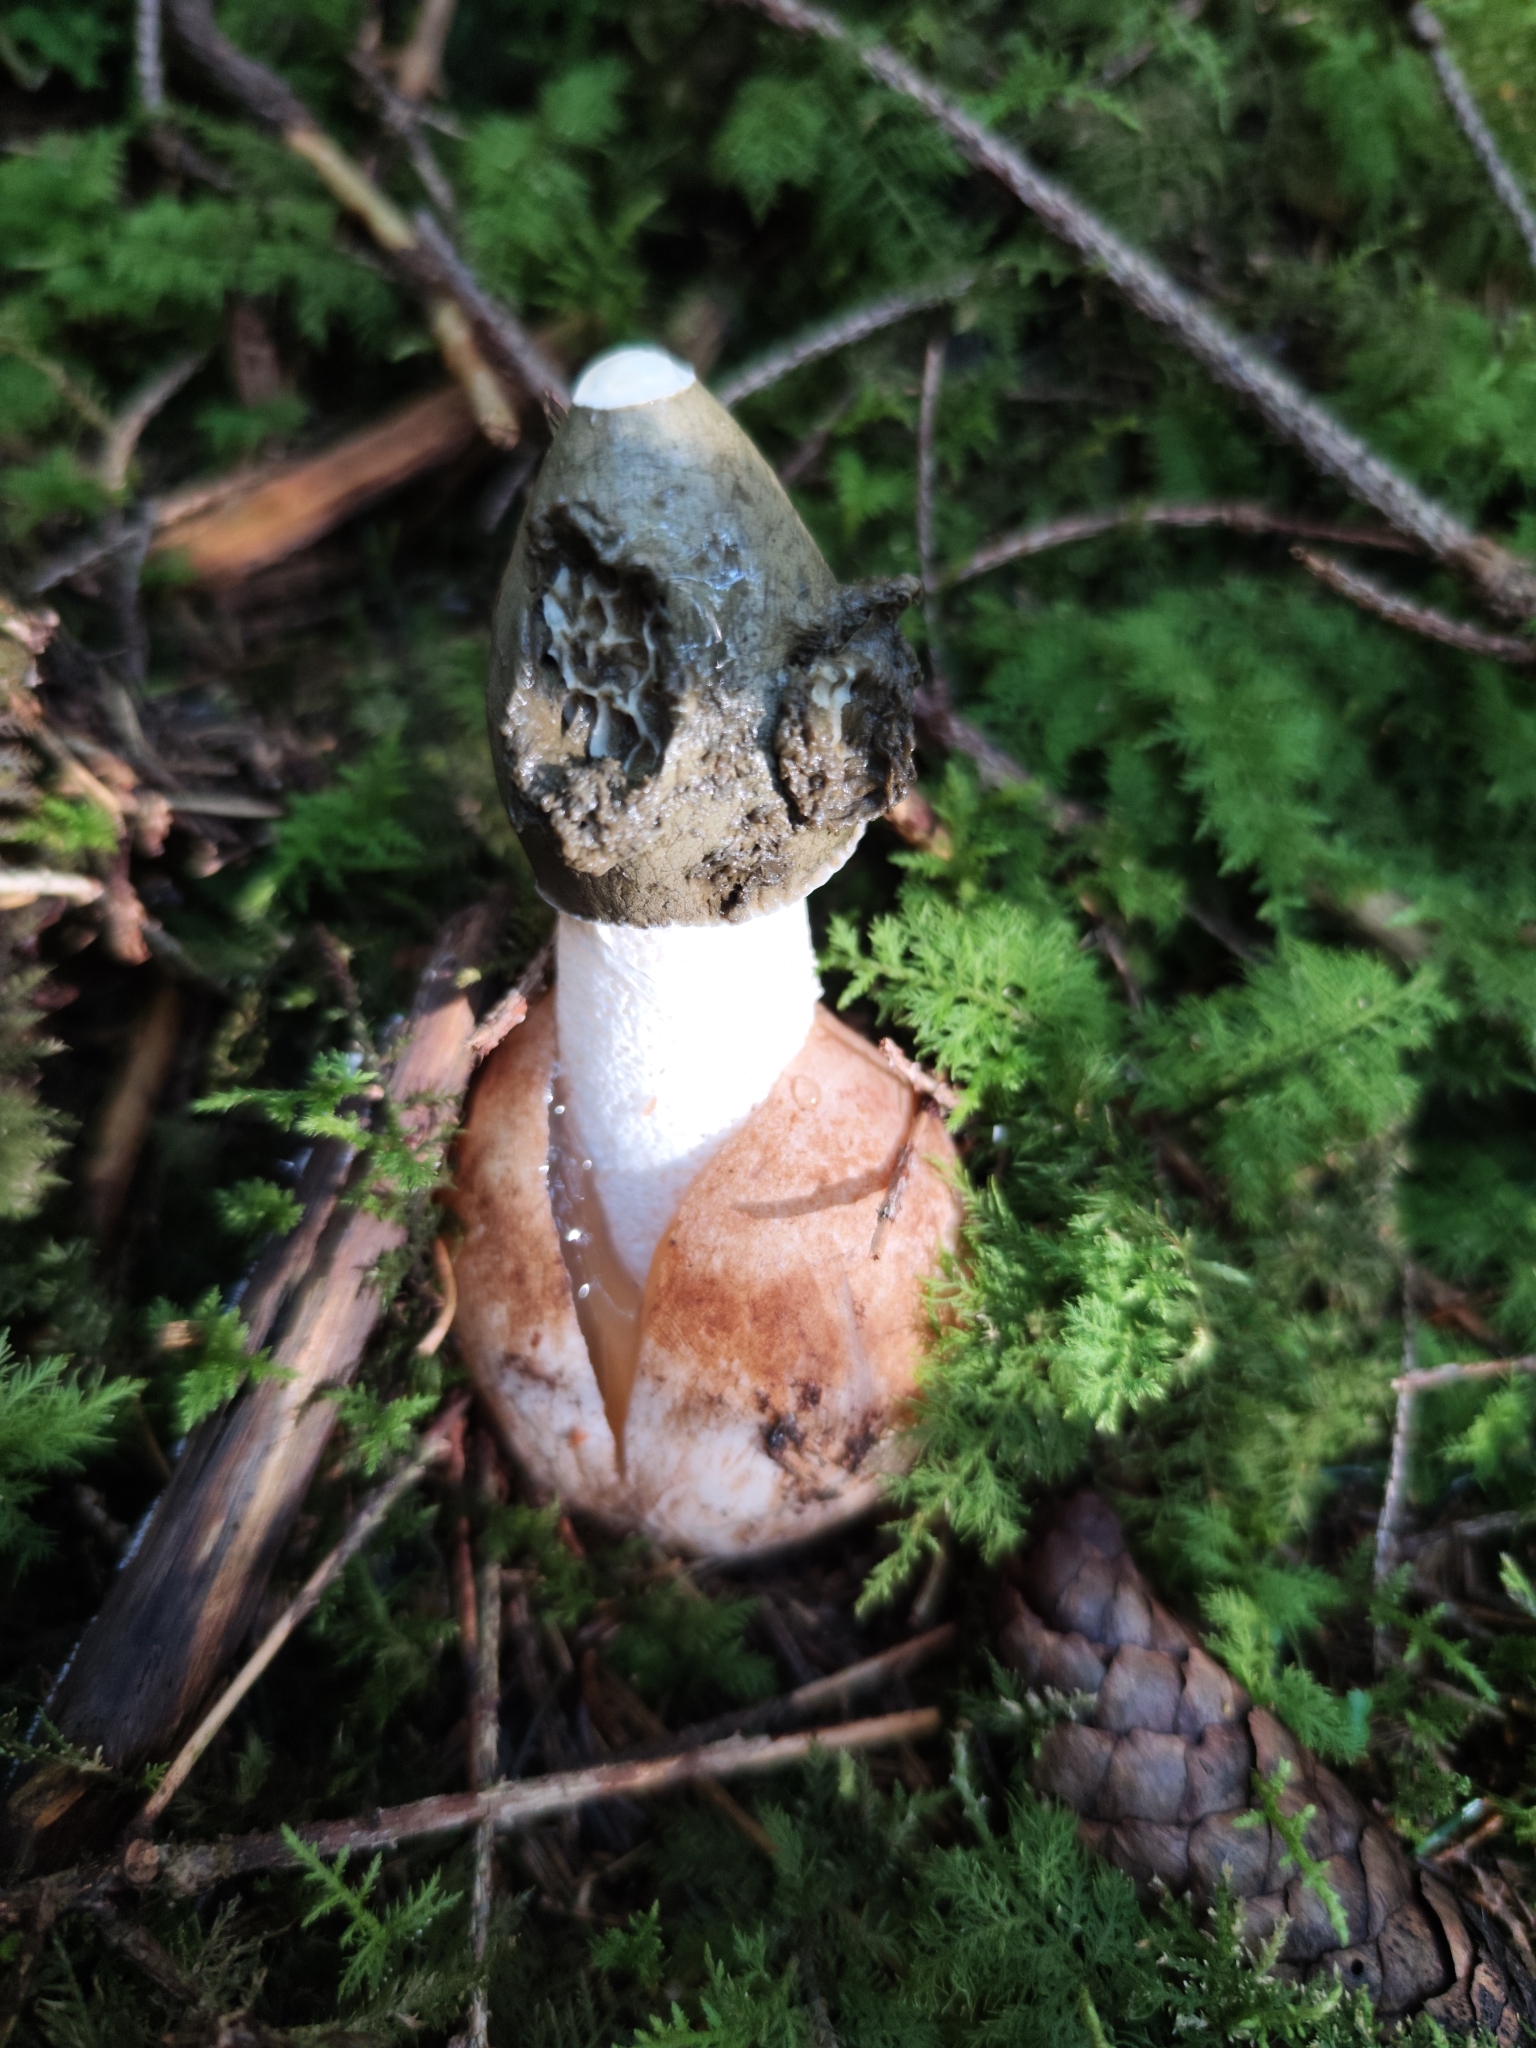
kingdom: Fungi
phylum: Basidiomycota
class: Agaricomycetes
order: Phallales
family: Phallaceae
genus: Phallus
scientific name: Phallus impudicus
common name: Common stinkhorn
